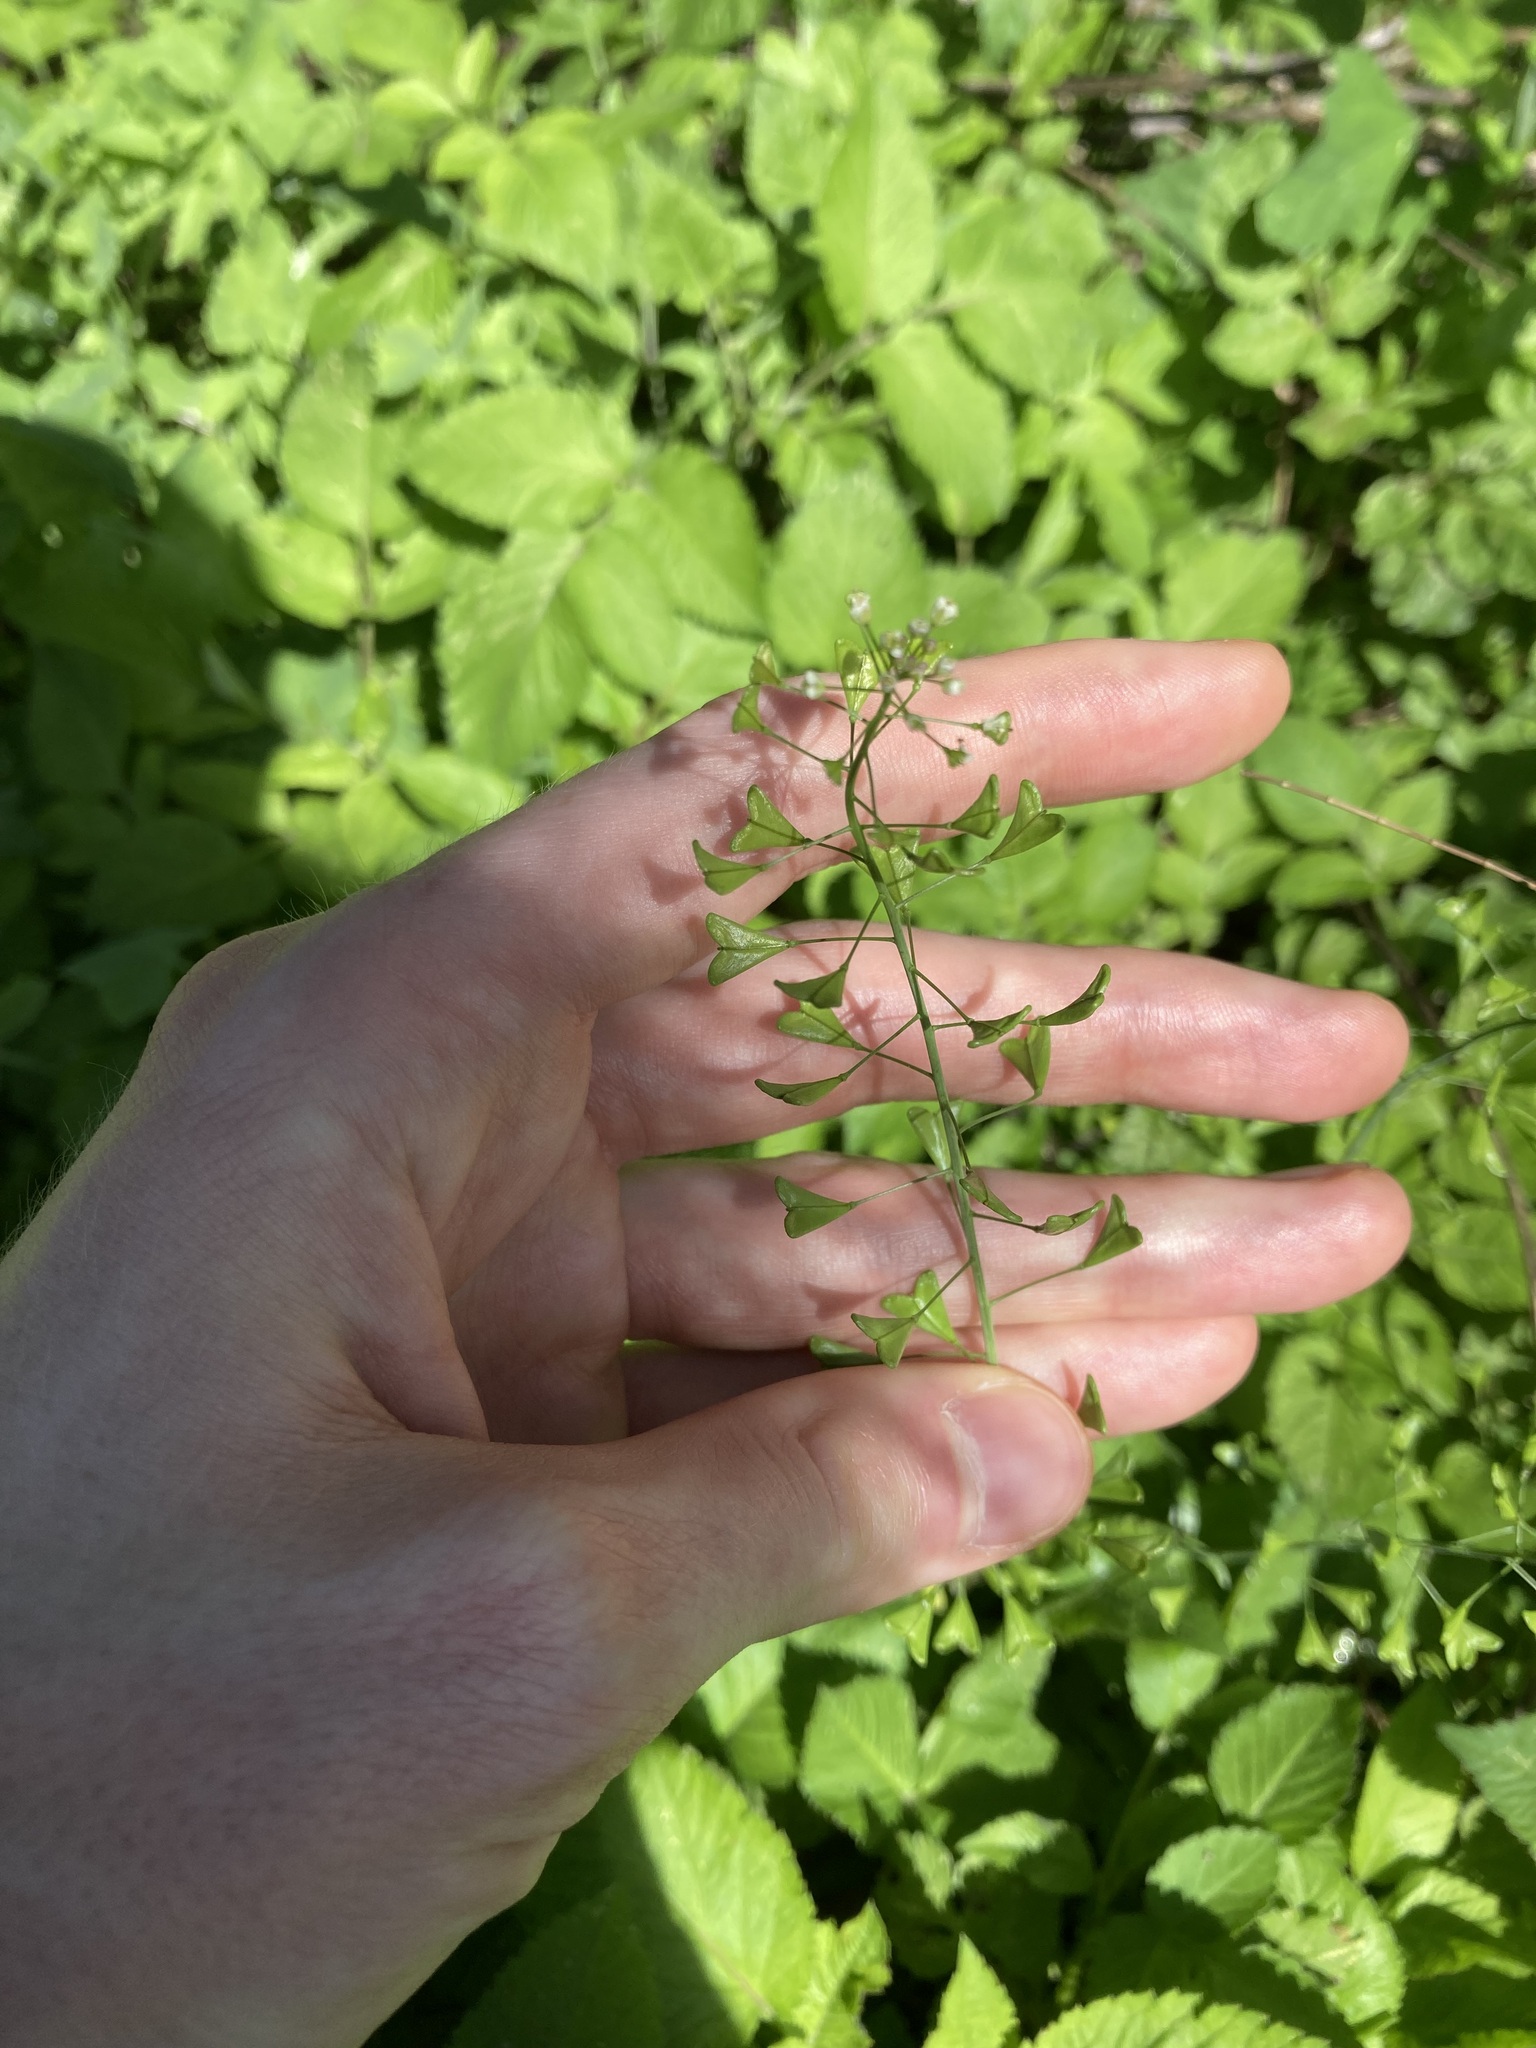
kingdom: Plantae
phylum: Tracheophyta
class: Magnoliopsida
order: Brassicales
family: Brassicaceae
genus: Capsella
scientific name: Capsella bursa-pastoris
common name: Shepherd's purse
